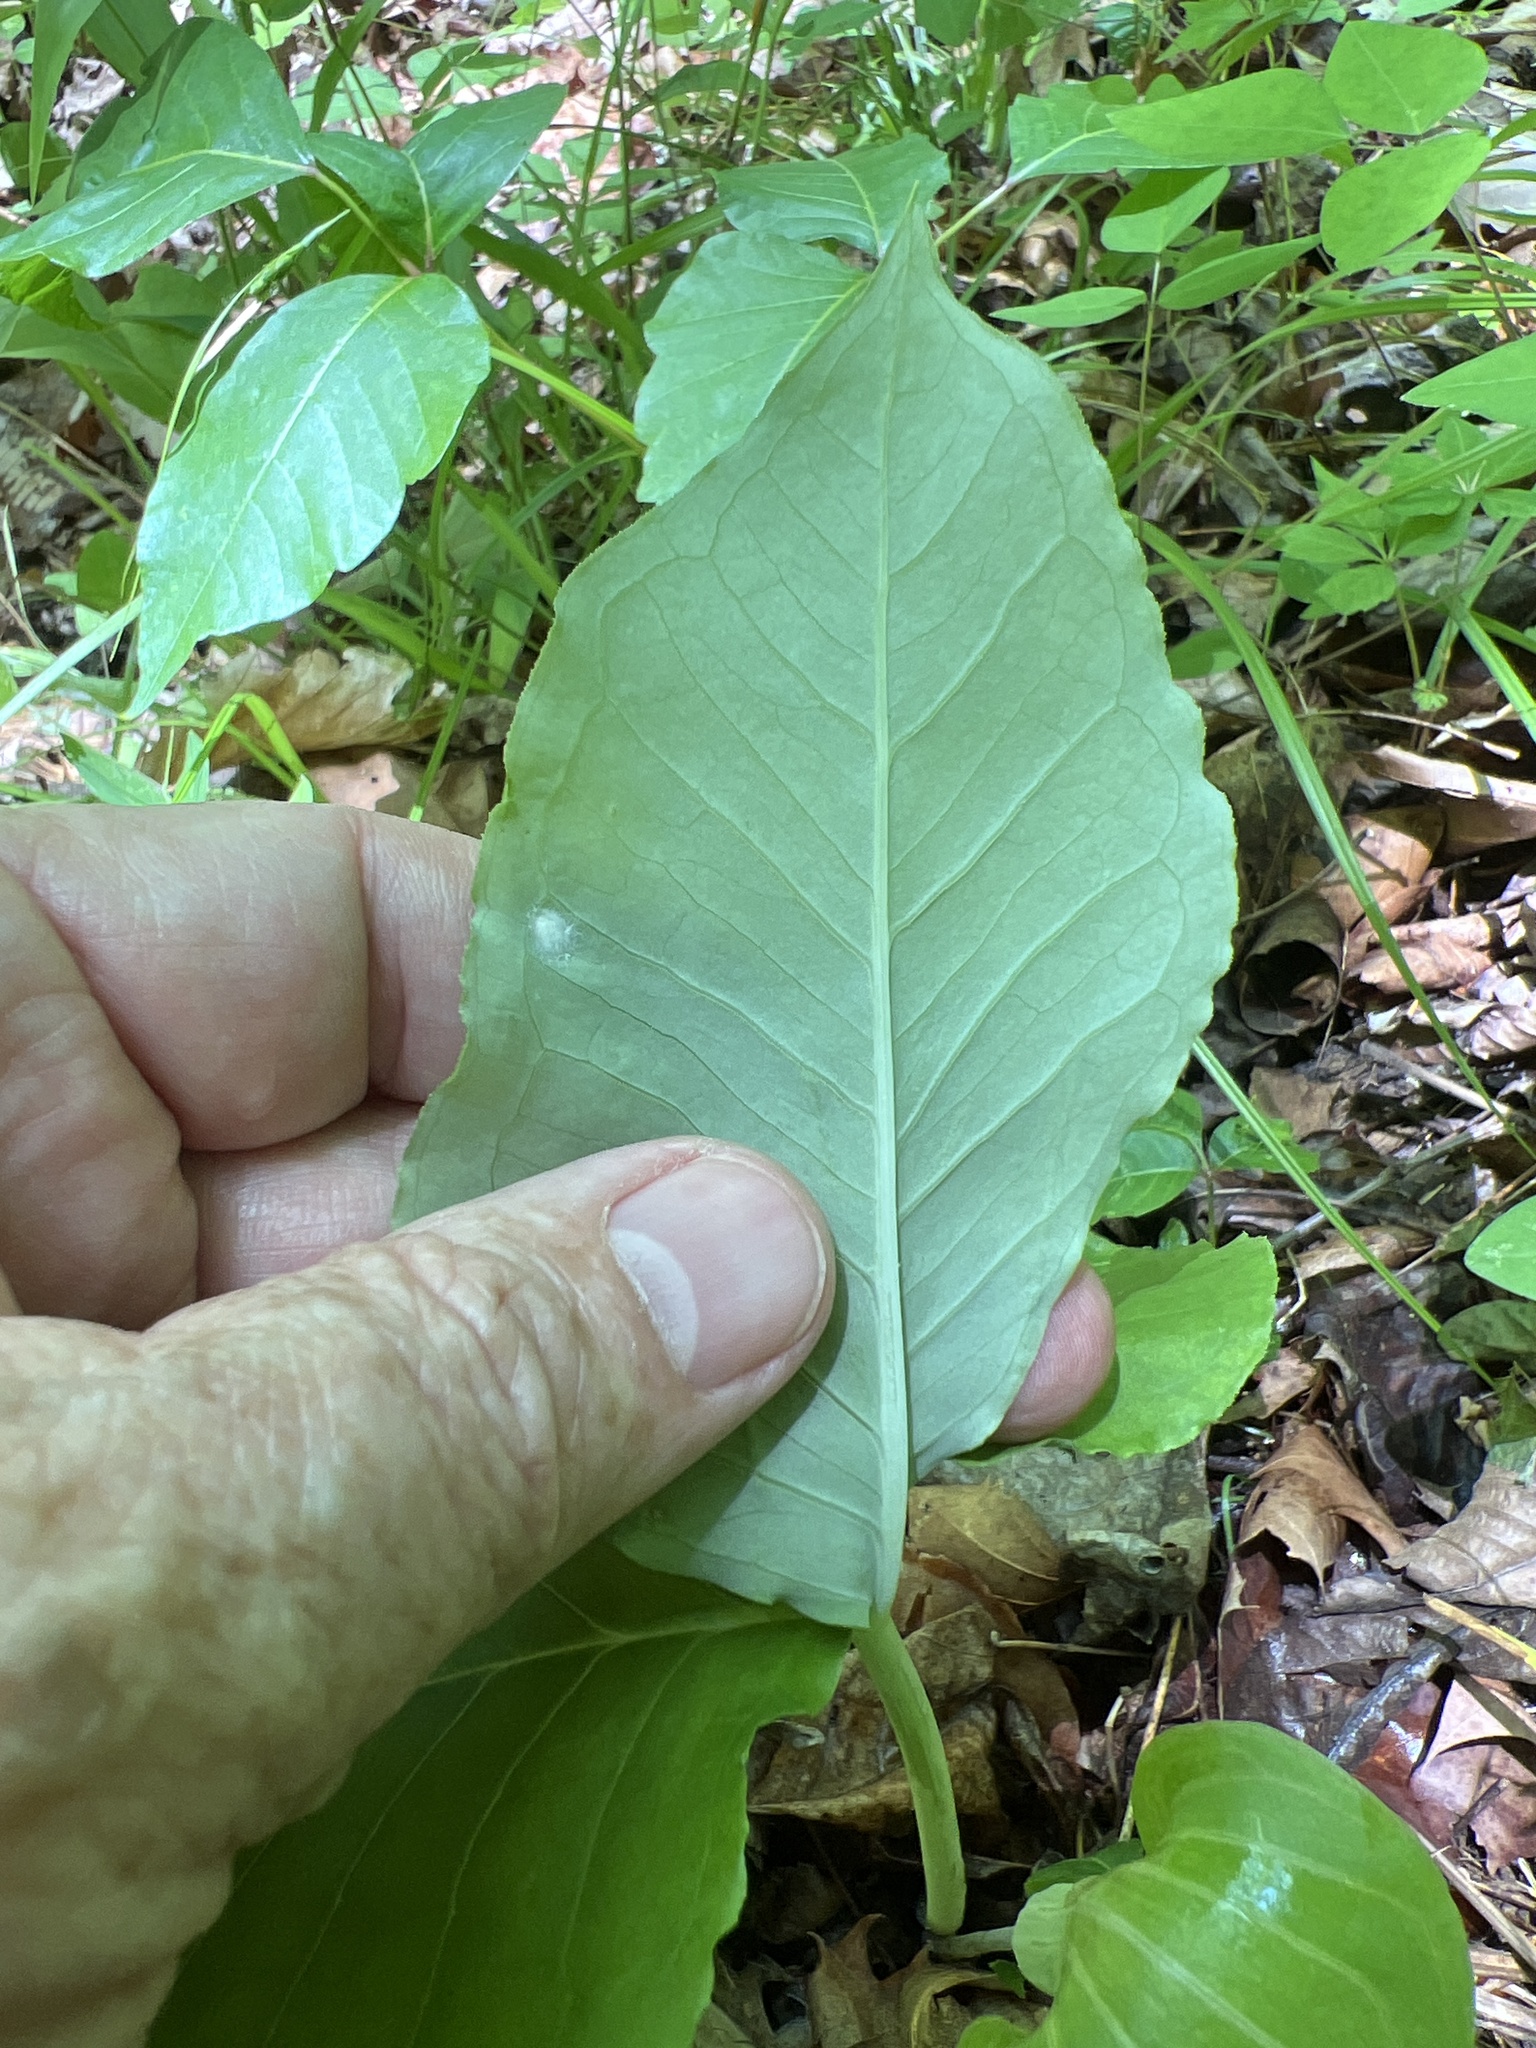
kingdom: Plantae
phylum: Tracheophyta
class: Liliopsida
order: Alismatales
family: Araceae
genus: Arisaema
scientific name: Arisaema triphyllum
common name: Jack-in-the-pulpit
